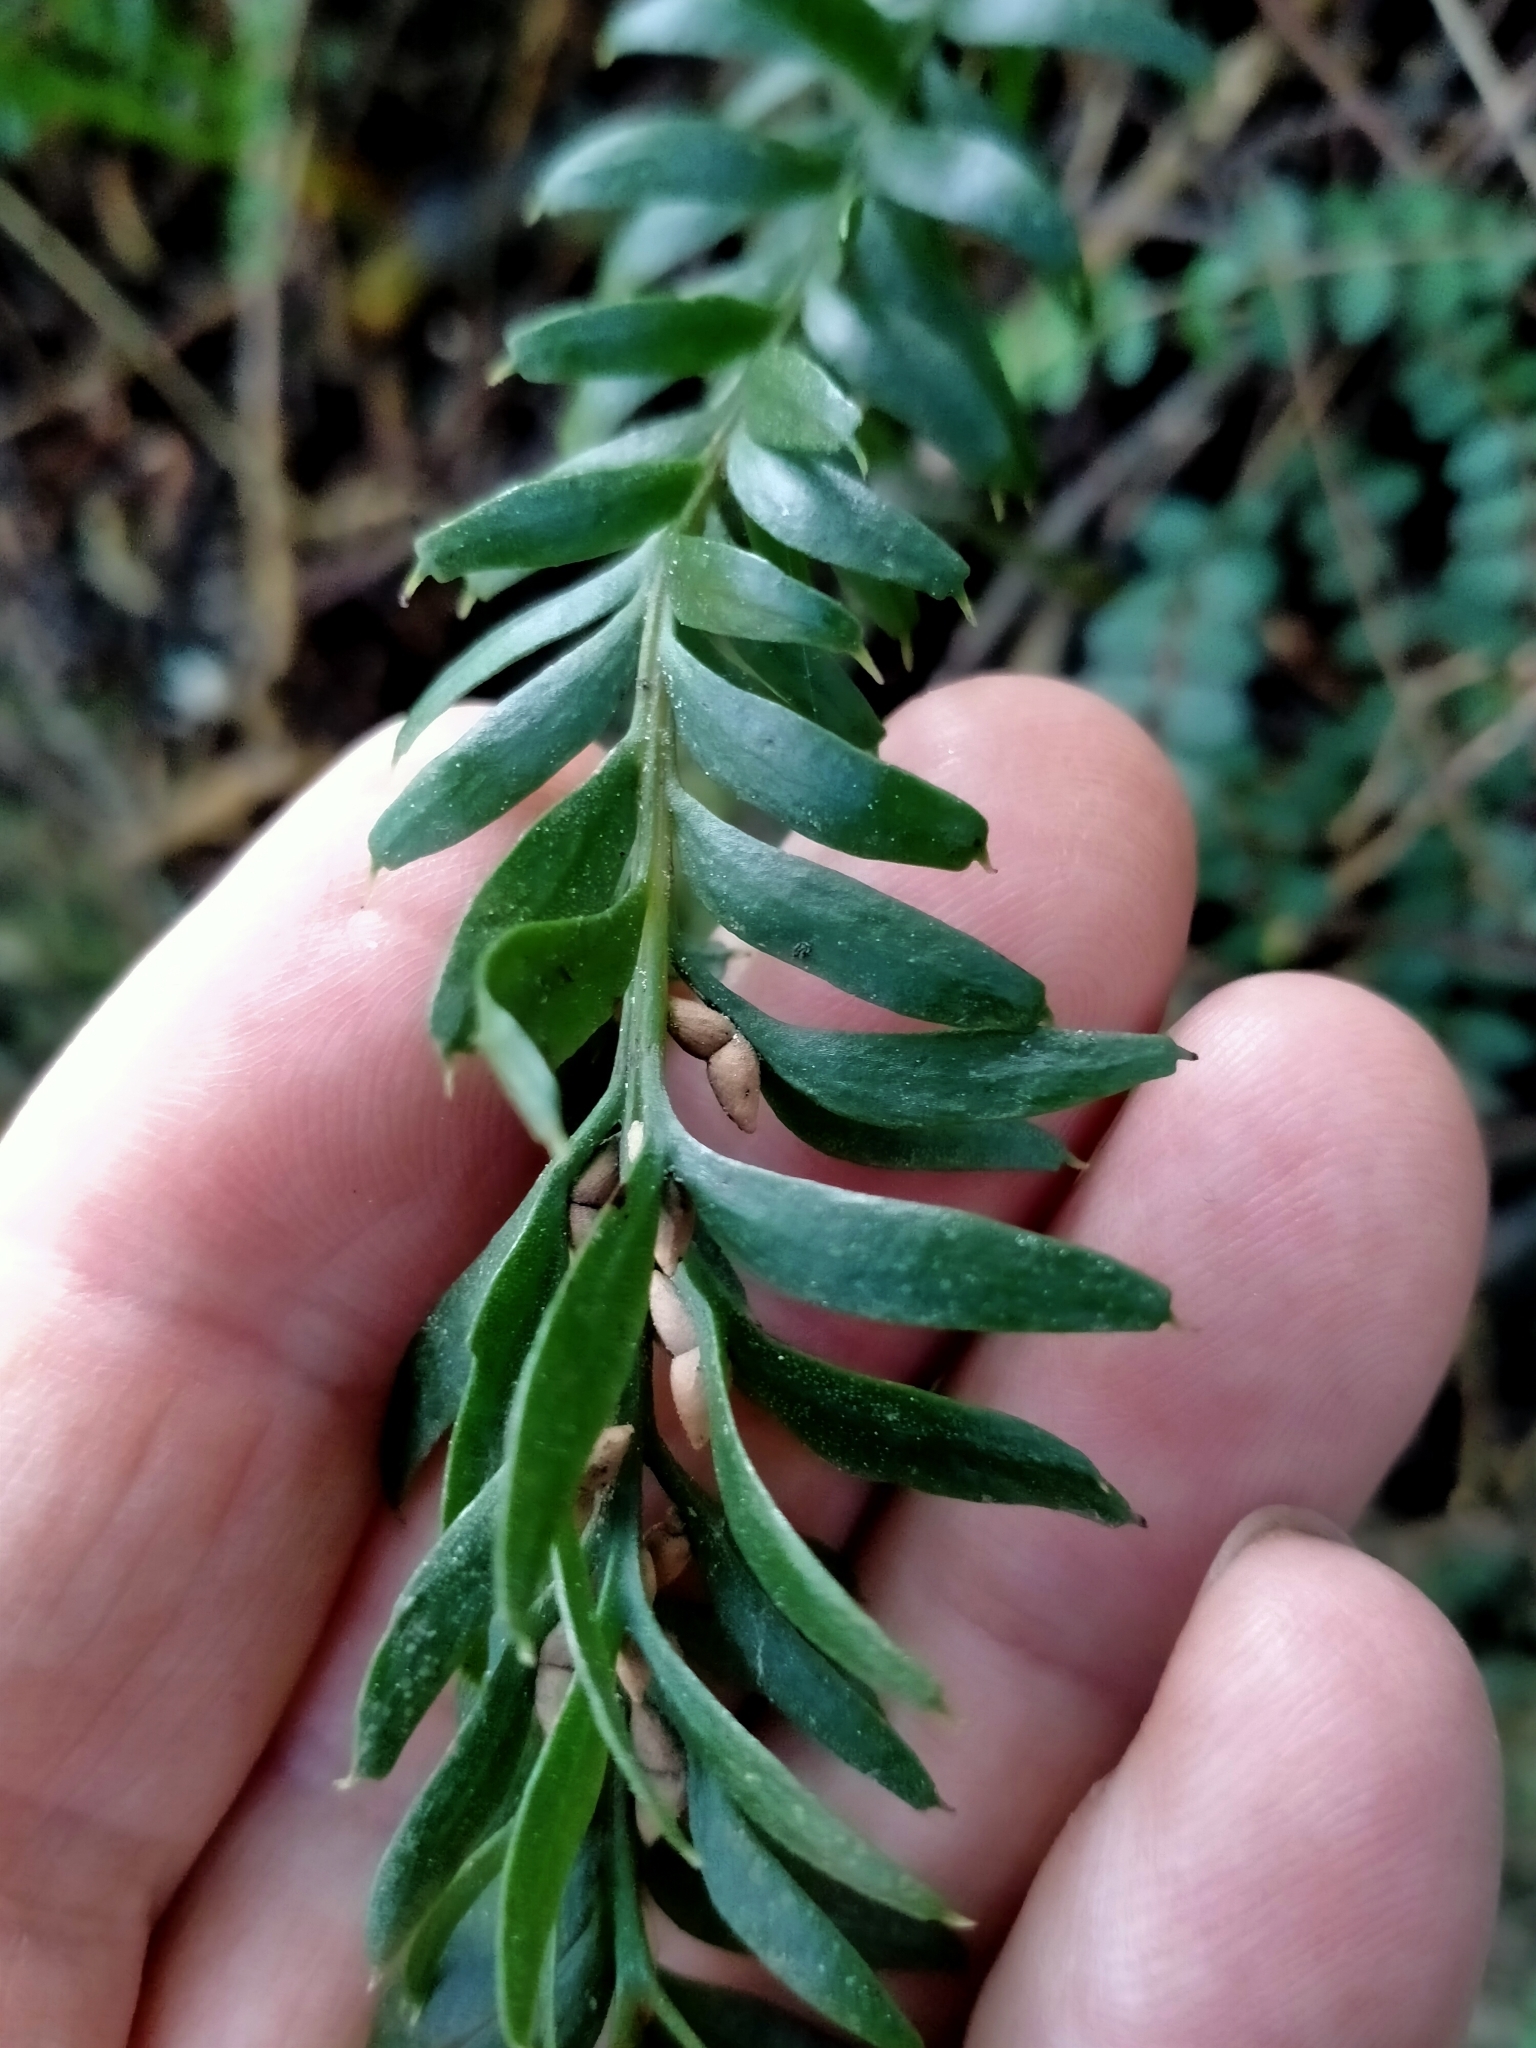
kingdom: Plantae
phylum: Tracheophyta
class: Polypodiopsida
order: Psilotales
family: Psilotaceae
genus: Tmesipteris
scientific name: Tmesipteris tannensis
